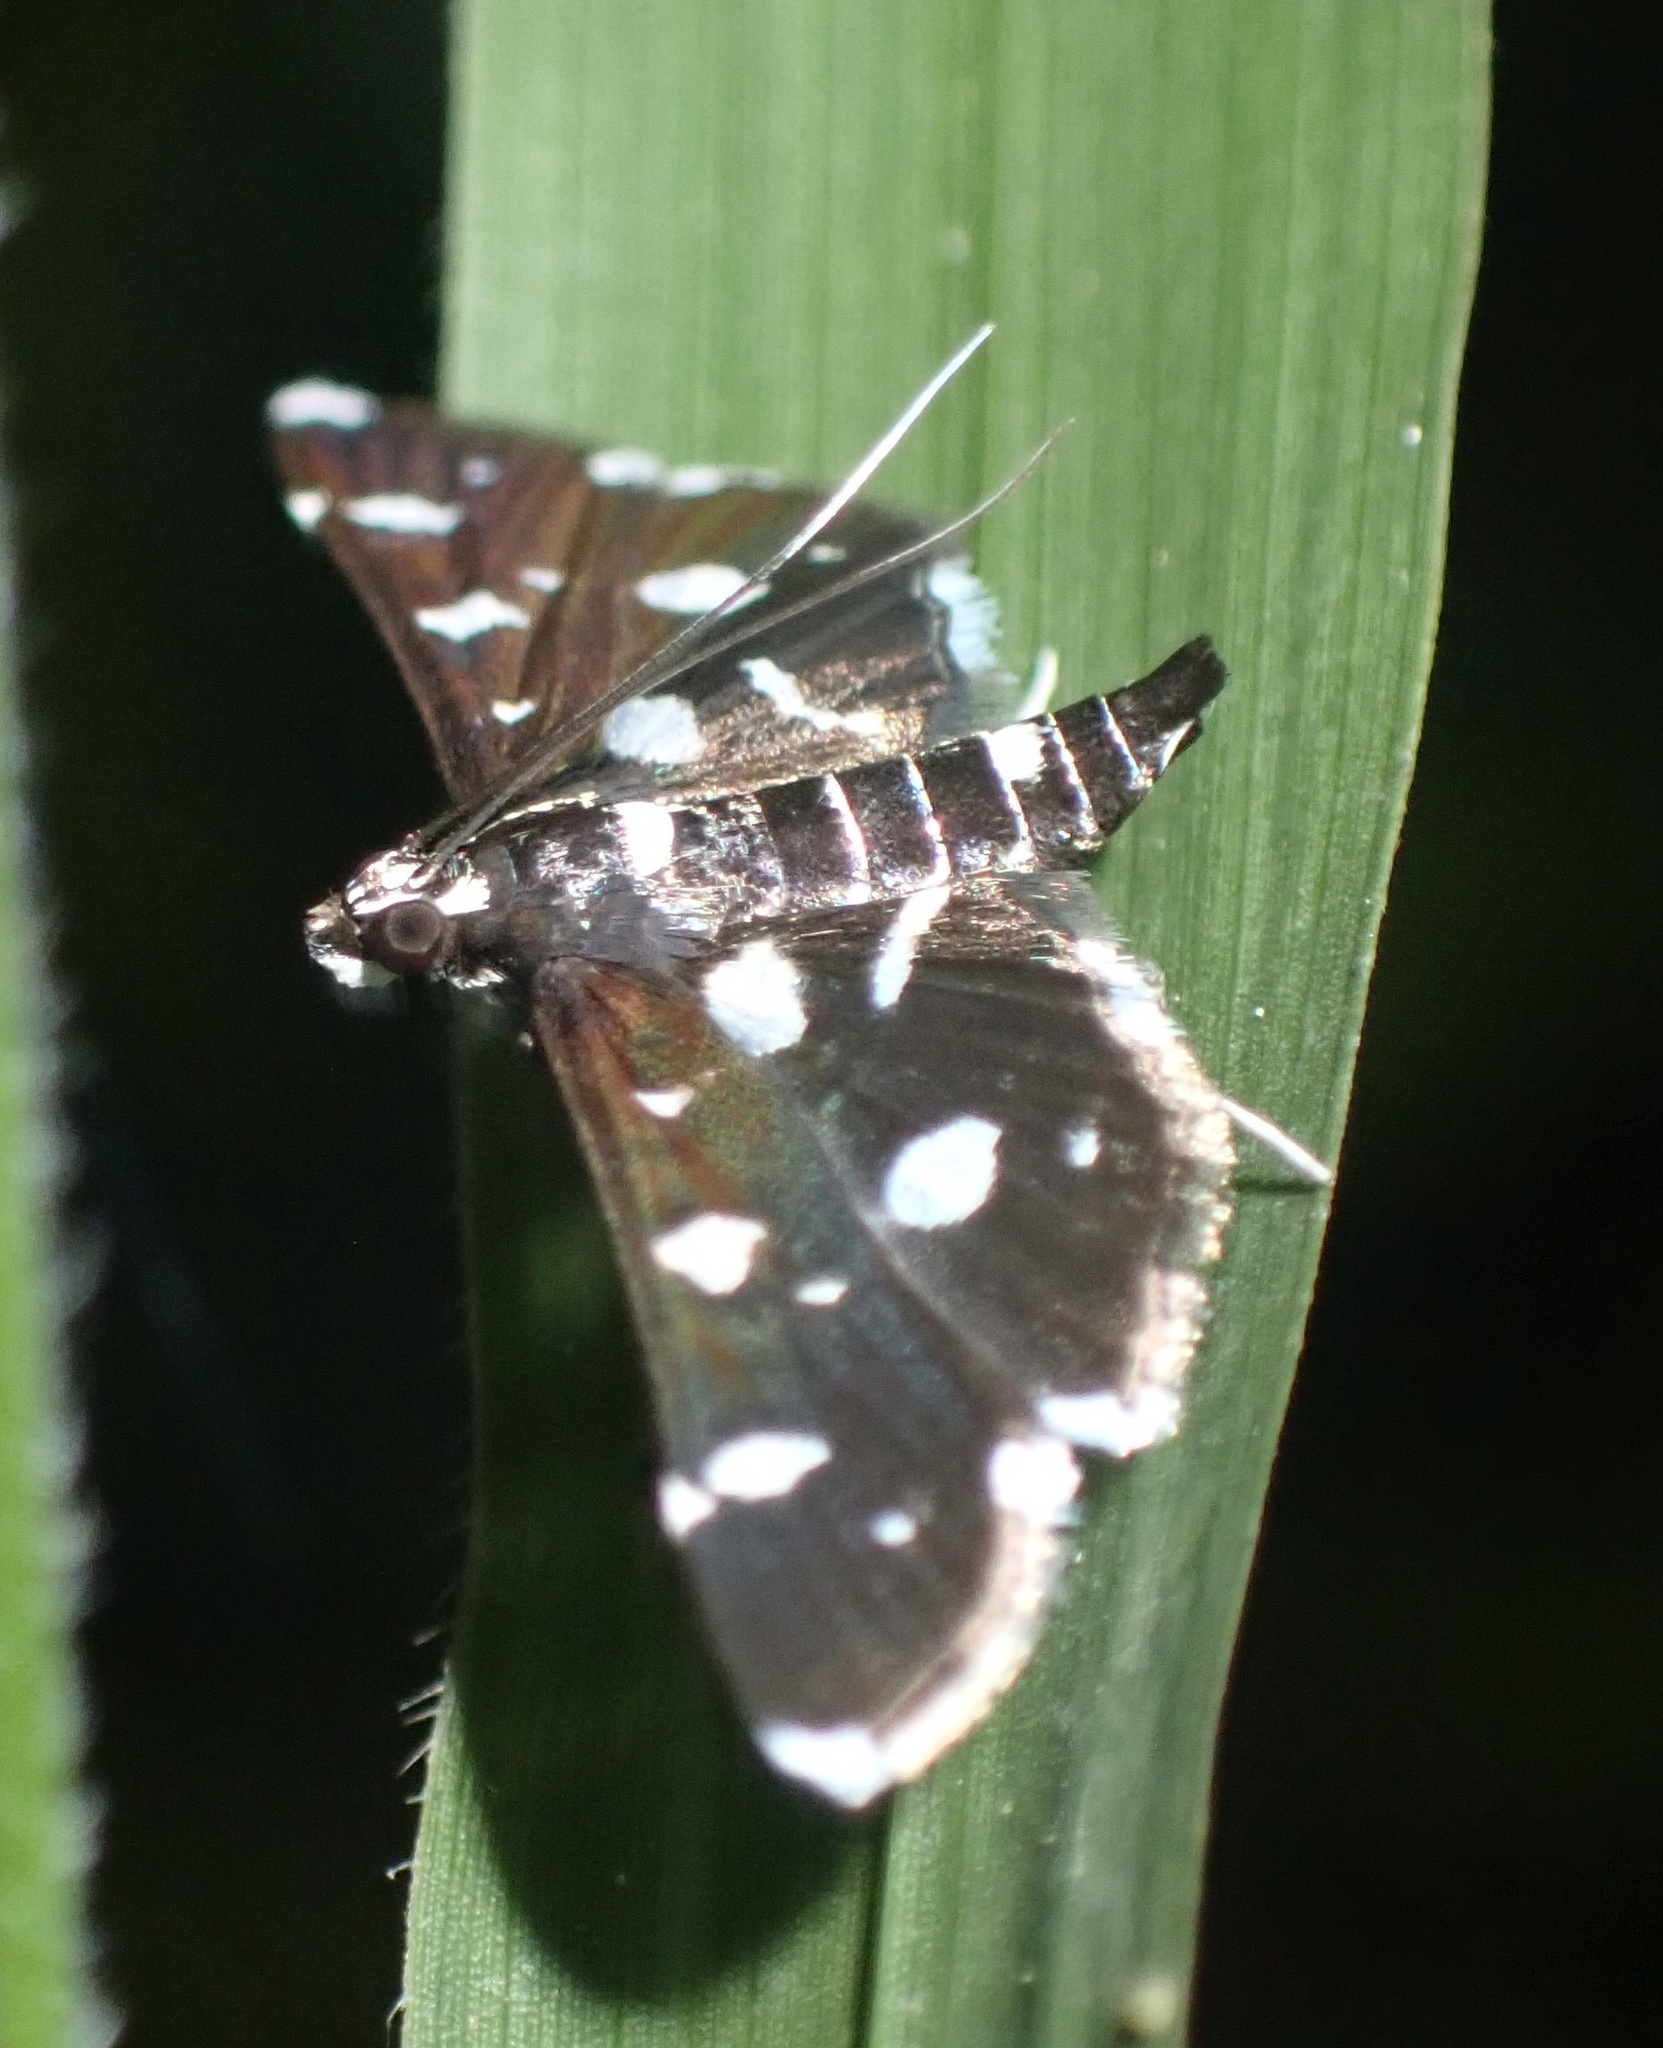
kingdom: Animalia
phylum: Arthropoda
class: Insecta
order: Lepidoptera
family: Crambidae
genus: Bocchoris
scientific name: Bocchoris inspersalis
